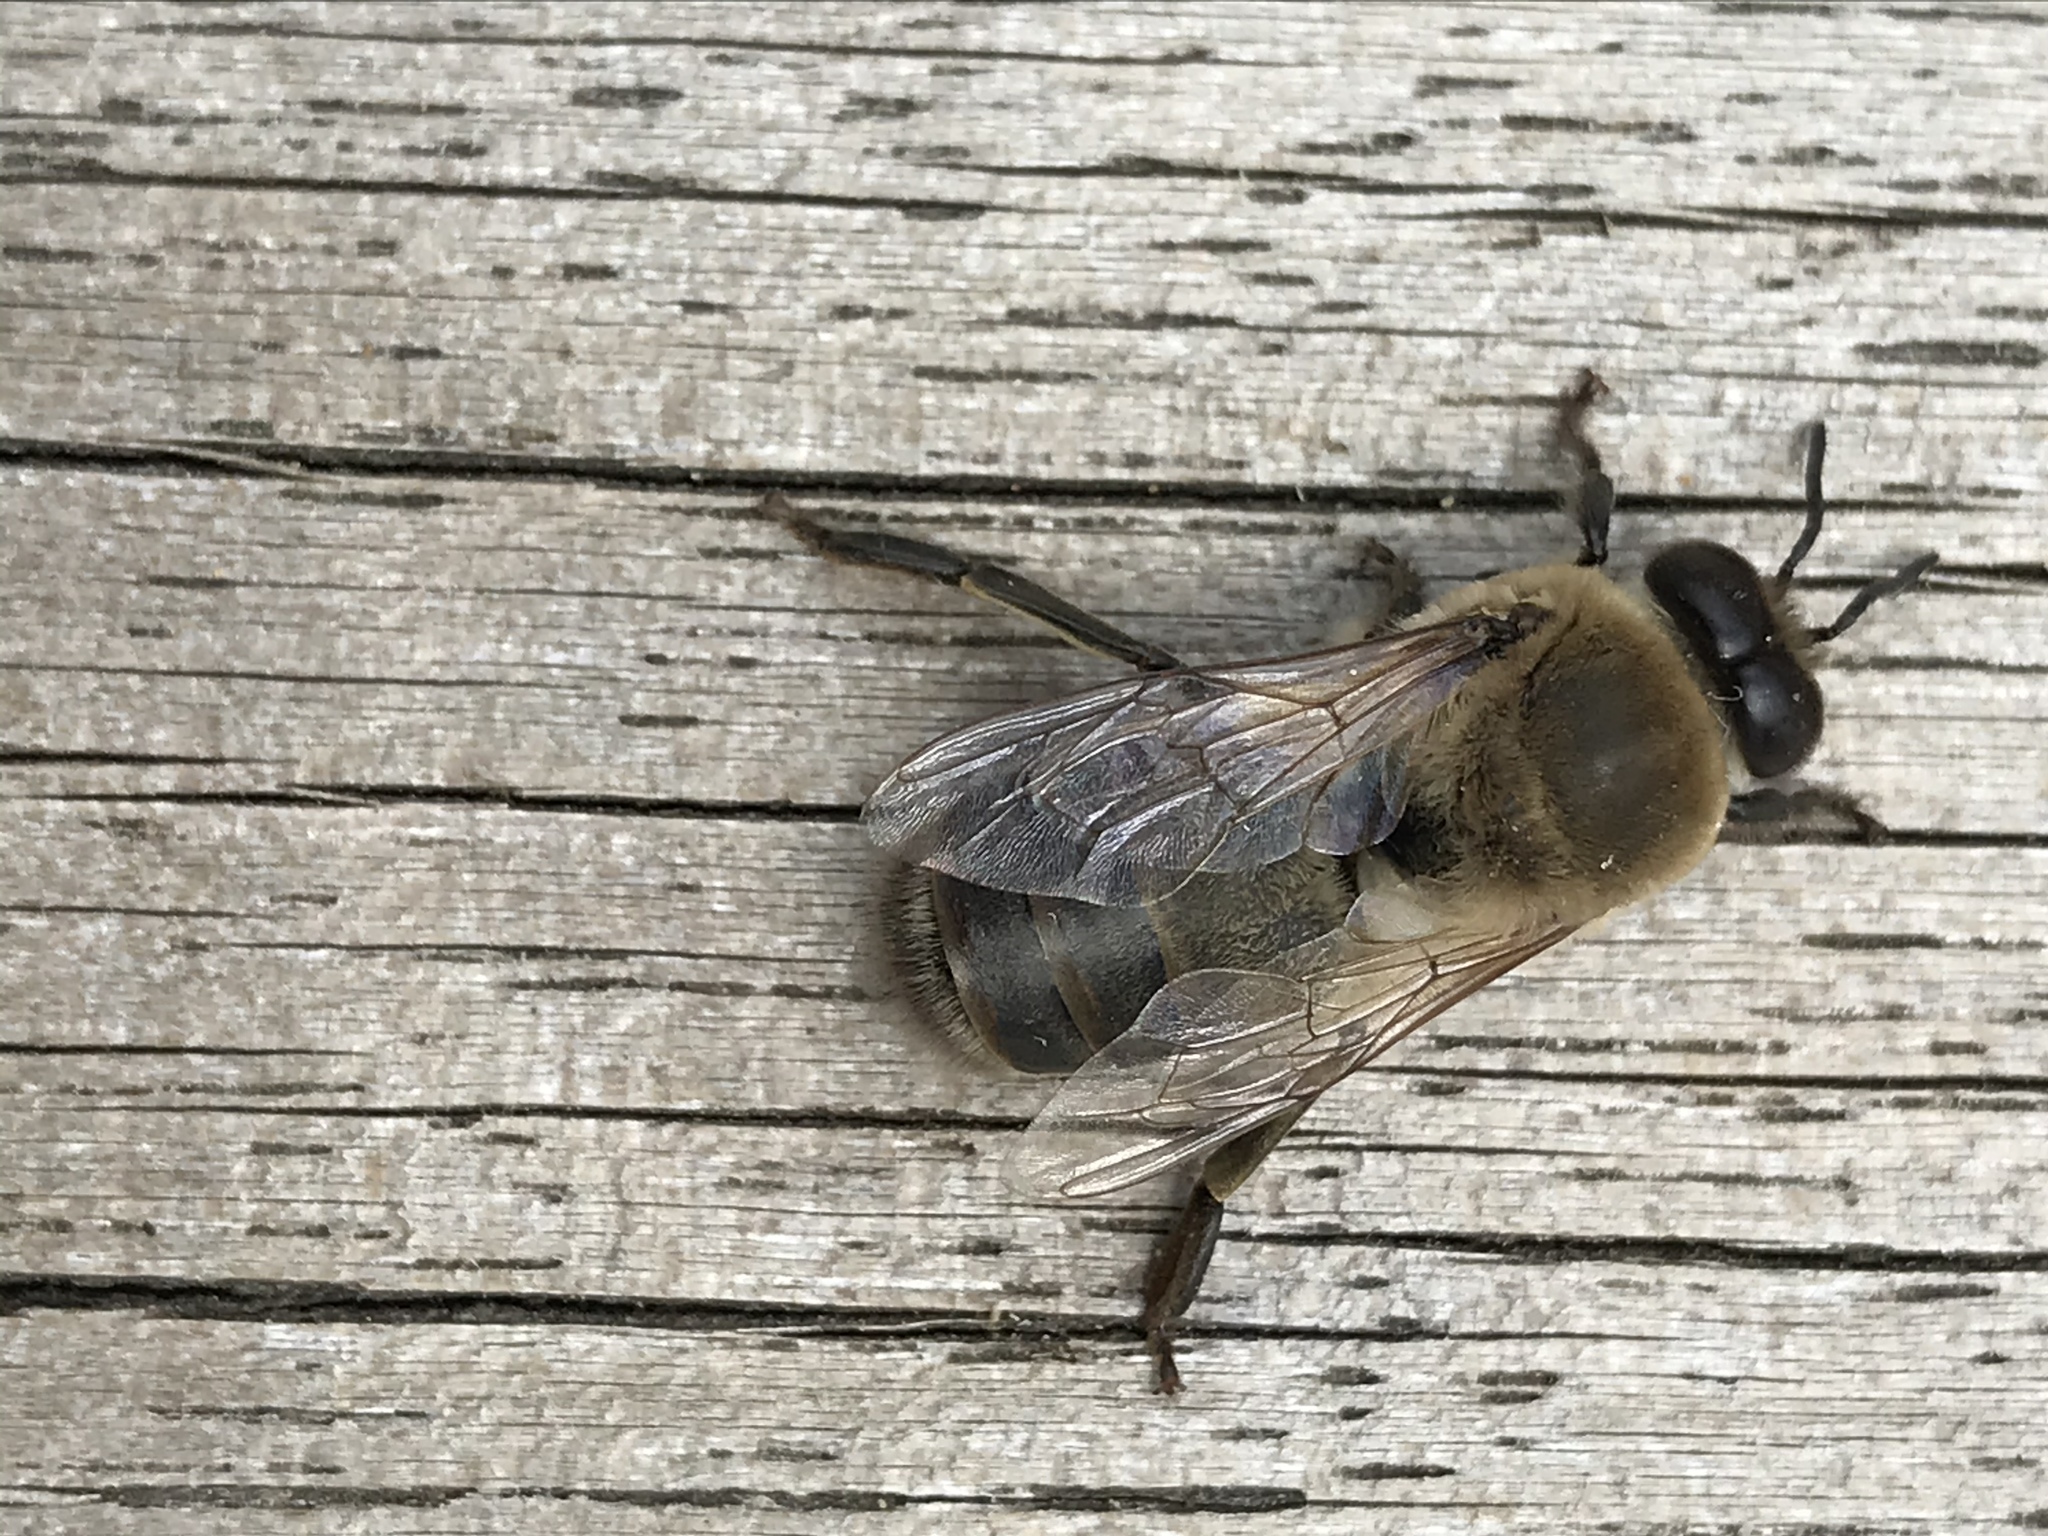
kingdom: Animalia
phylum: Arthropoda
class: Insecta
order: Hymenoptera
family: Apidae
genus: Apis
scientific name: Apis mellifera
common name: Honey bee
